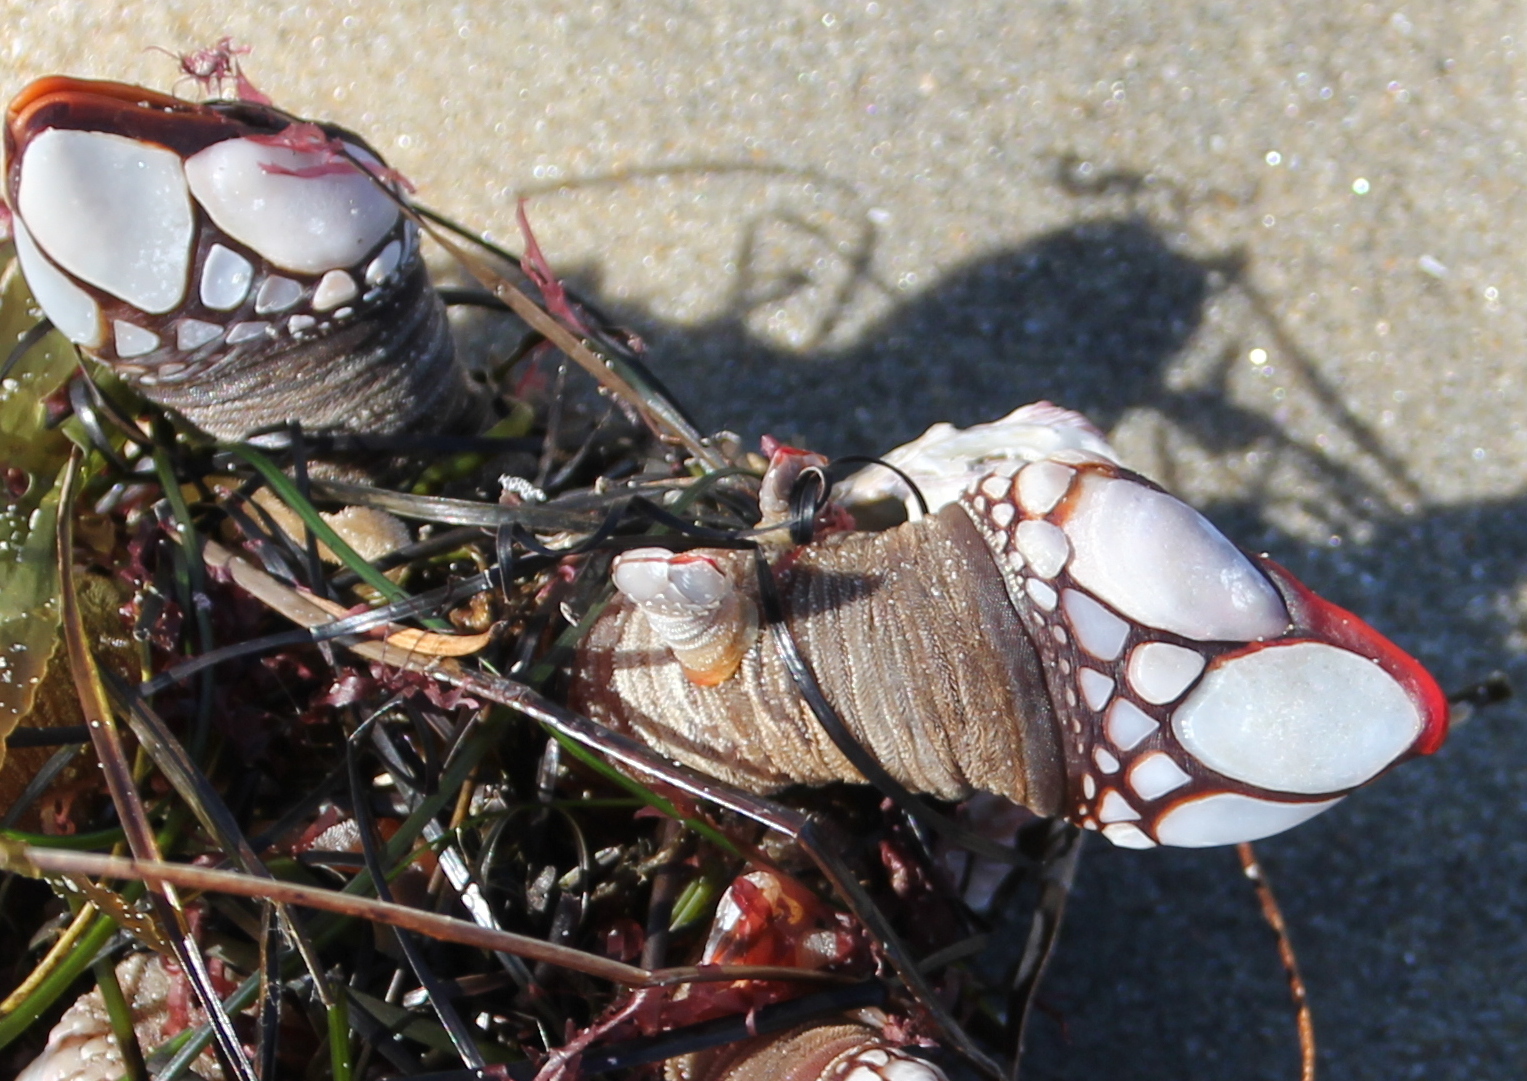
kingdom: Animalia
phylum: Arthropoda
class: Maxillopoda
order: Pedunculata
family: Pollicipedidae
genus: Pollicipes
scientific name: Pollicipes polymerus
